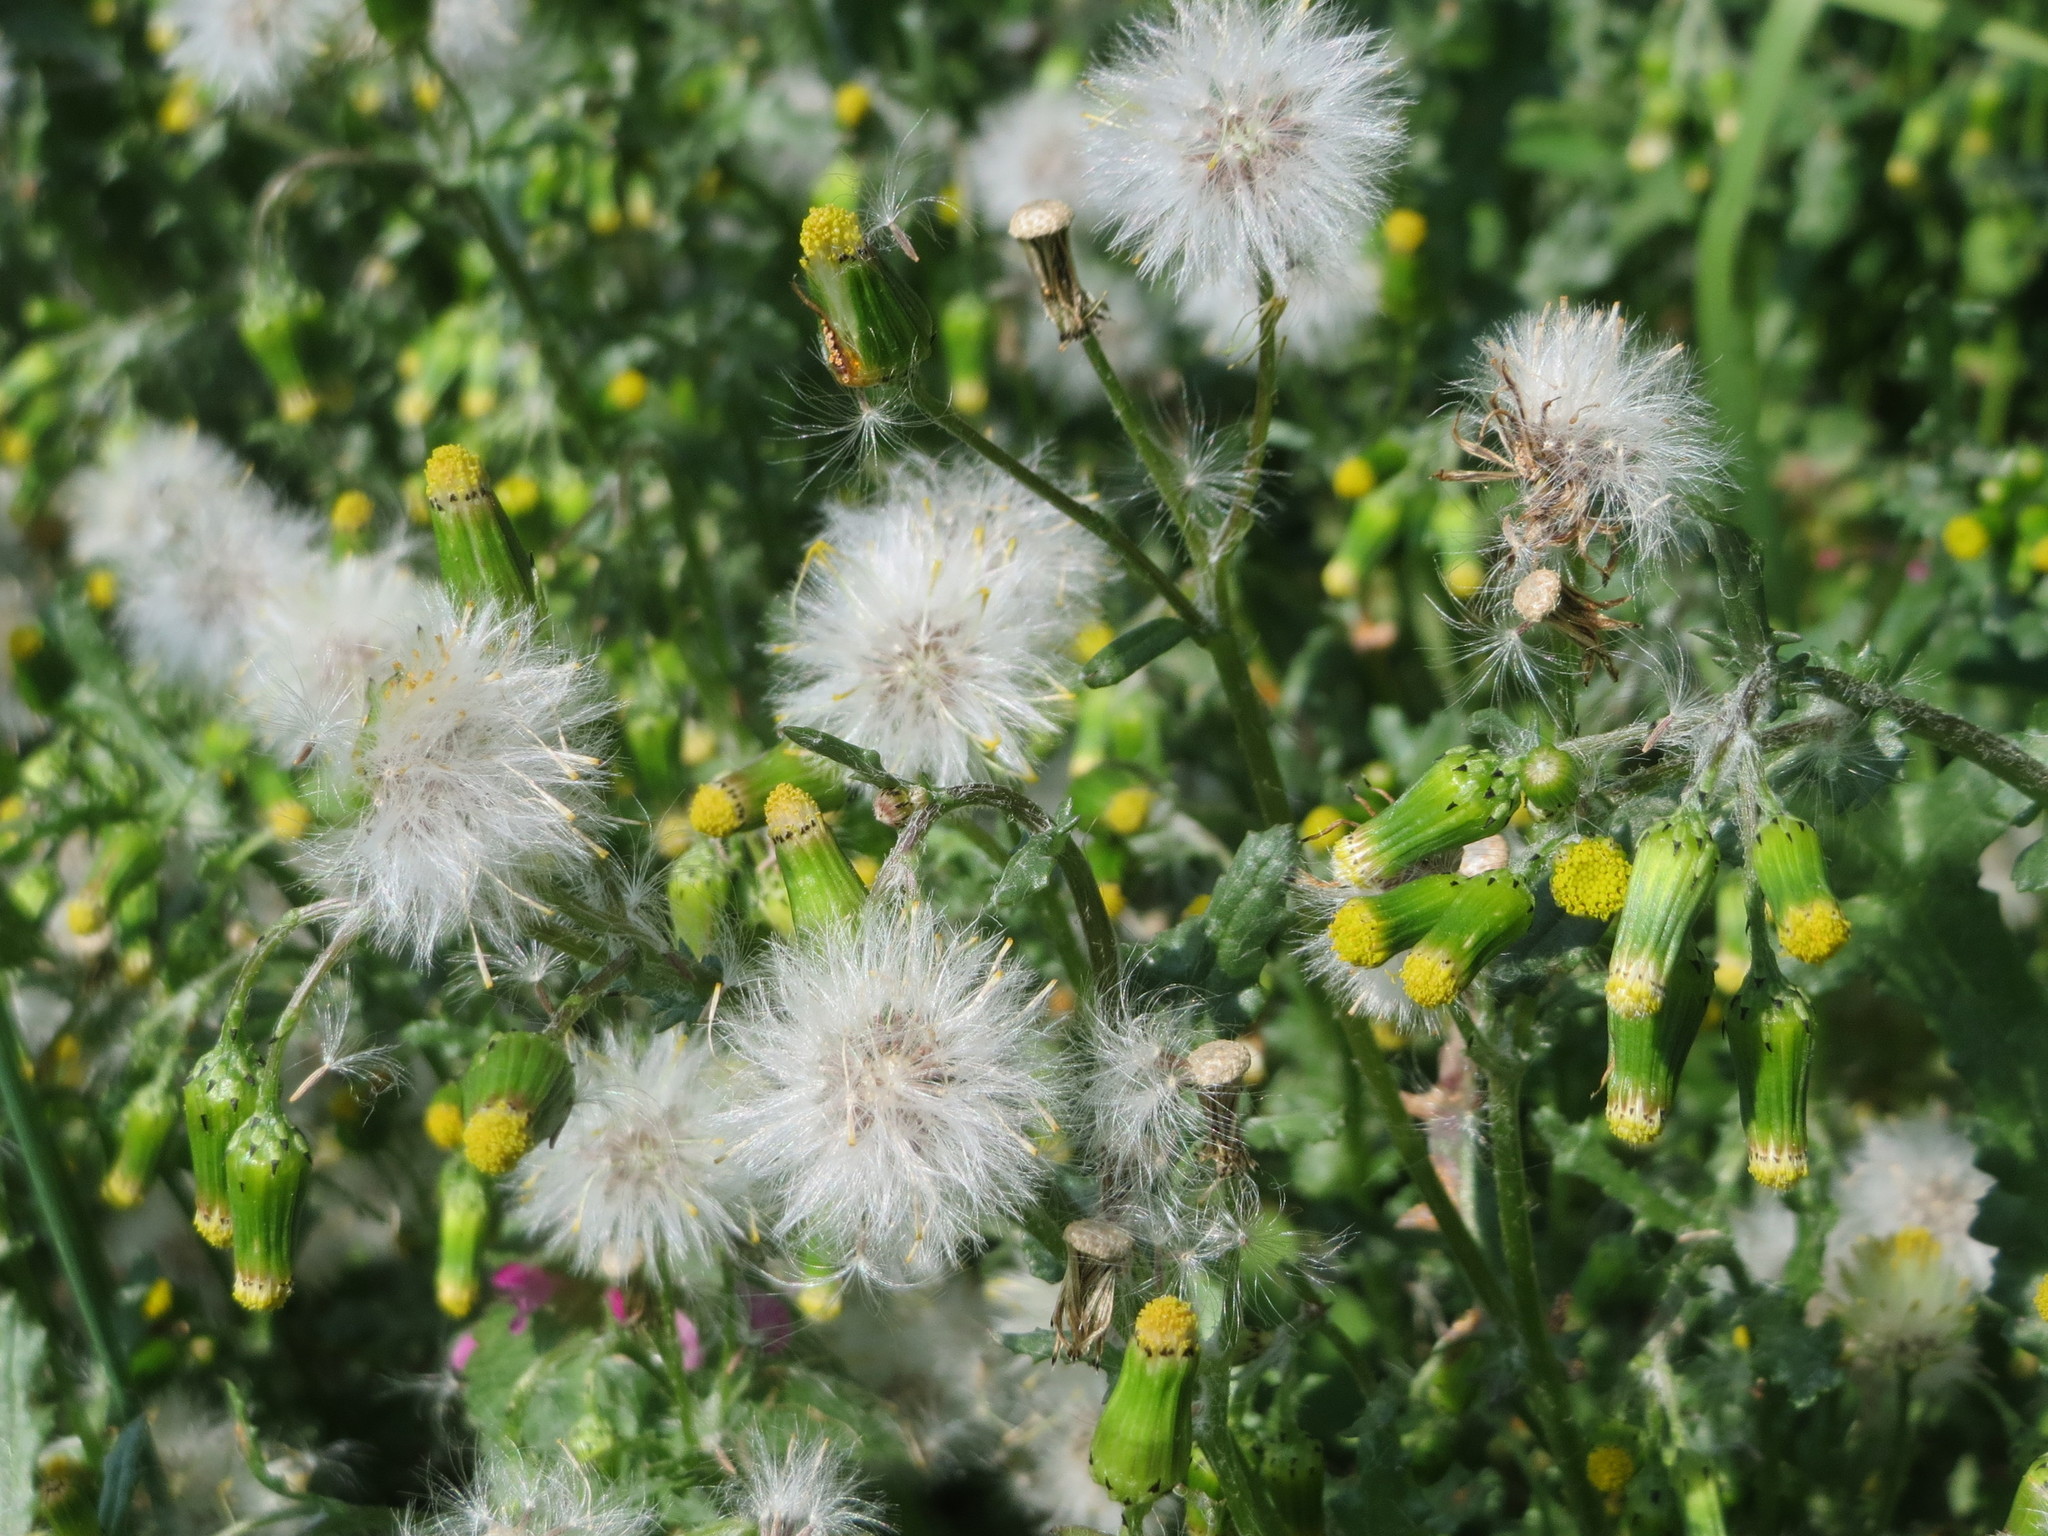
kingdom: Plantae
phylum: Tracheophyta
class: Magnoliopsida
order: Asterales
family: Asteraceae
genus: Senecio
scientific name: Senecio vulgaris
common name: Old-man-in-the-spring
